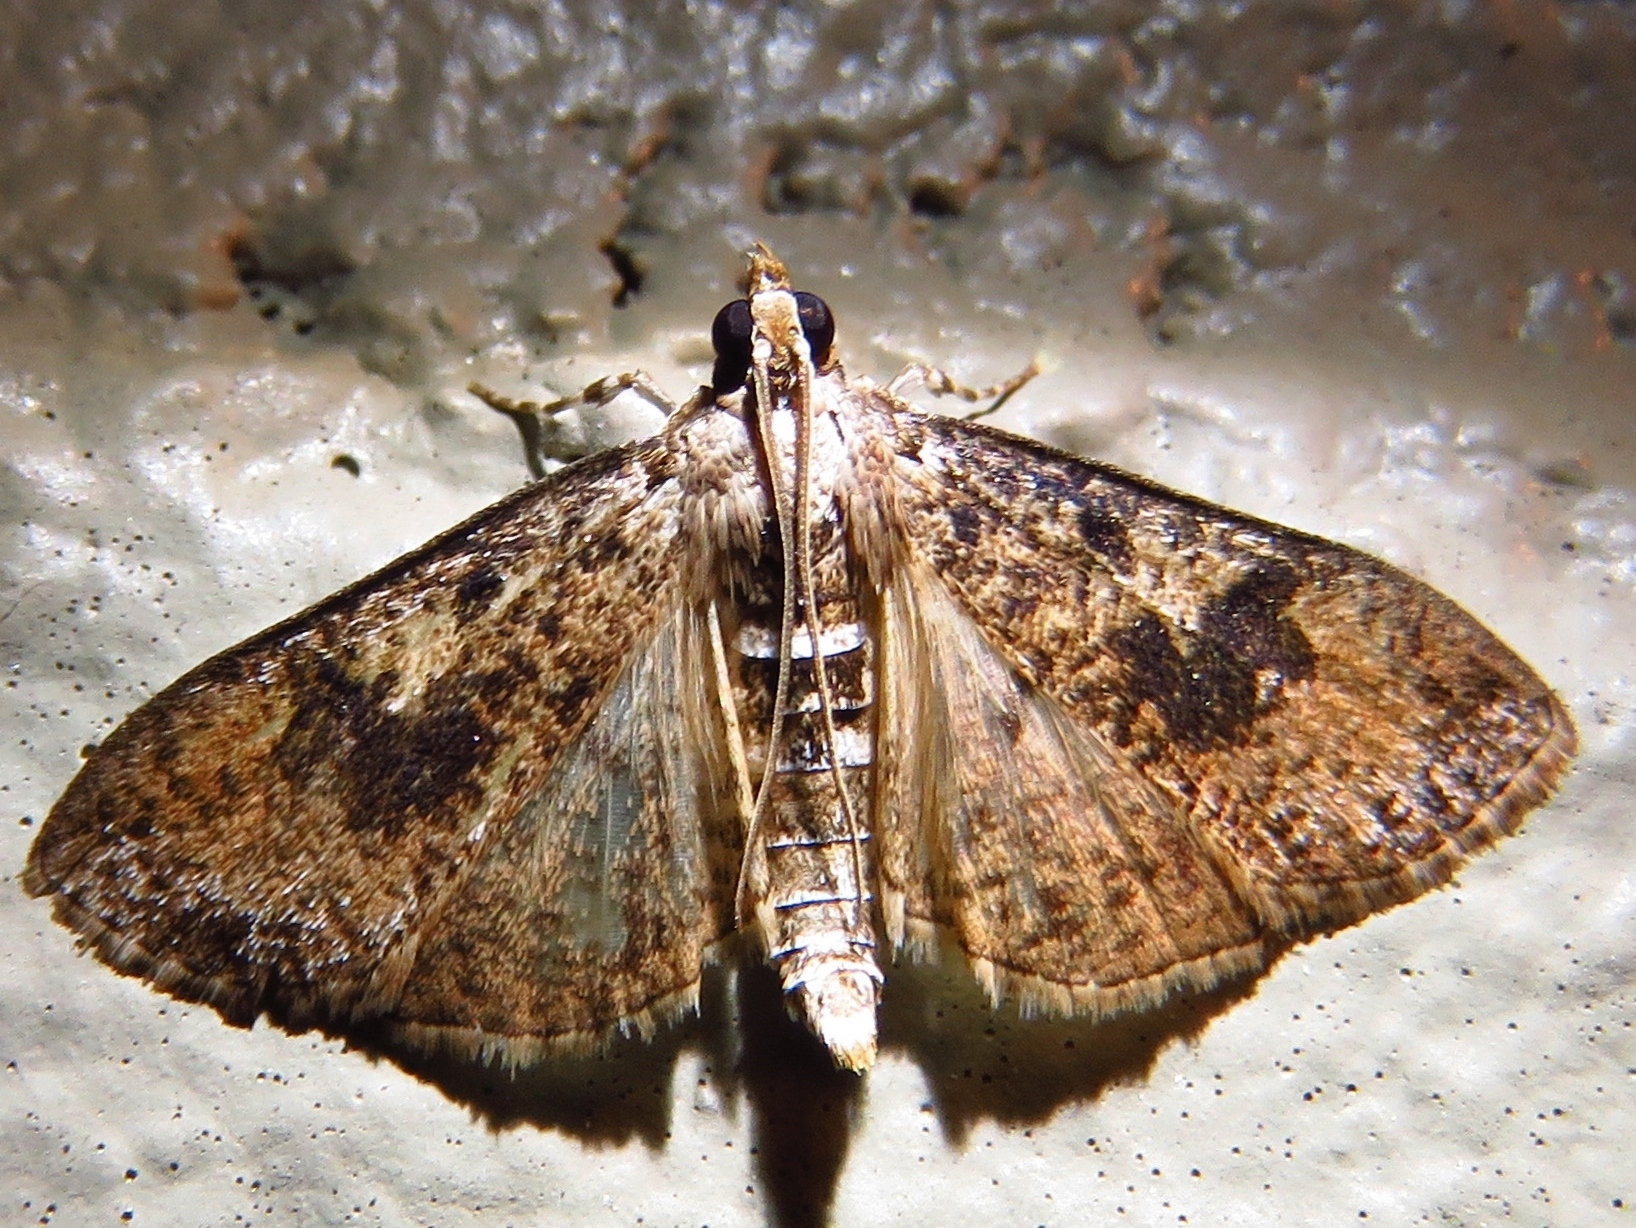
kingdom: Animalia
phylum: Arthropoda
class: Insecta
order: Lepidoptera
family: Crambidae
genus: Palpita
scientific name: Palpita magniferalis
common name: Splendid palpita moth
